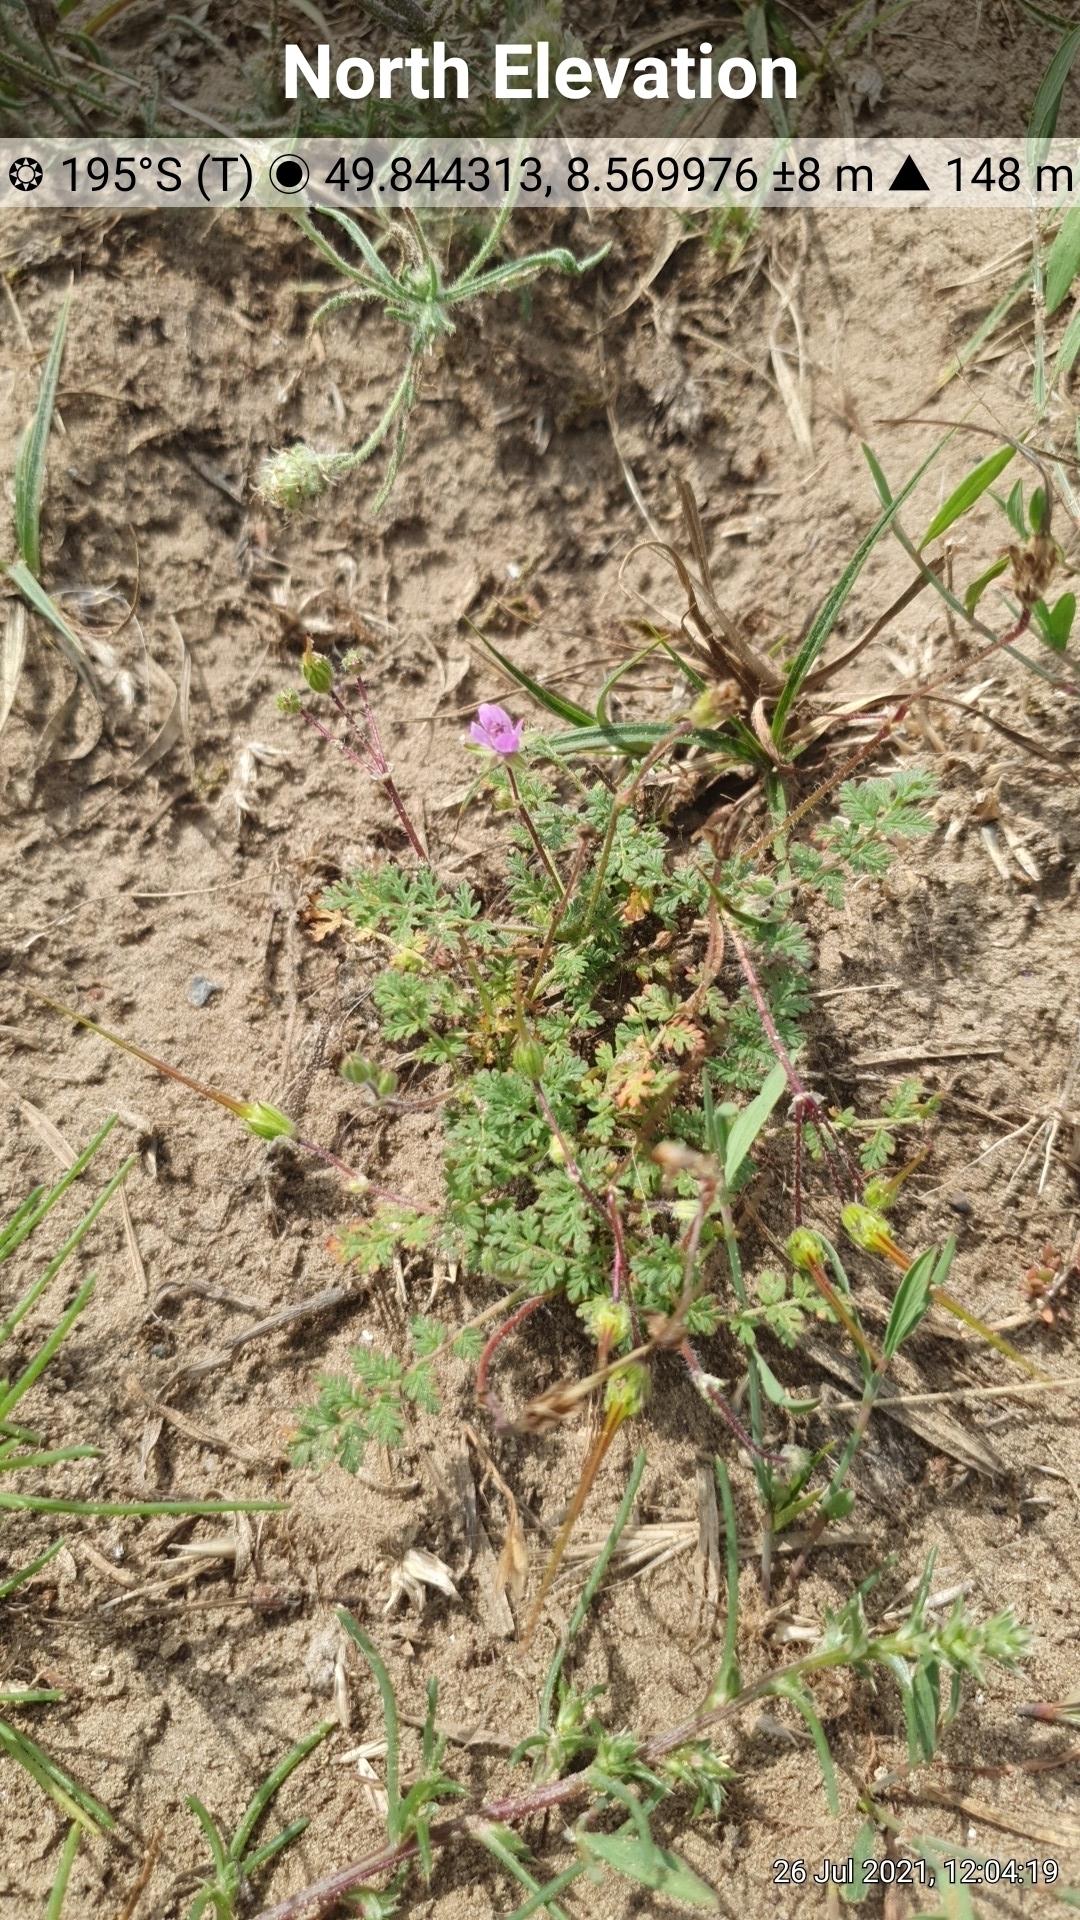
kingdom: Plantae
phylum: Tracheophyta
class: Magnoliopsida
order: Geraniales
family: Geraniaceae
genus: Erodium
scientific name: Erodium cicutarium
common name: Common stork's-bill
